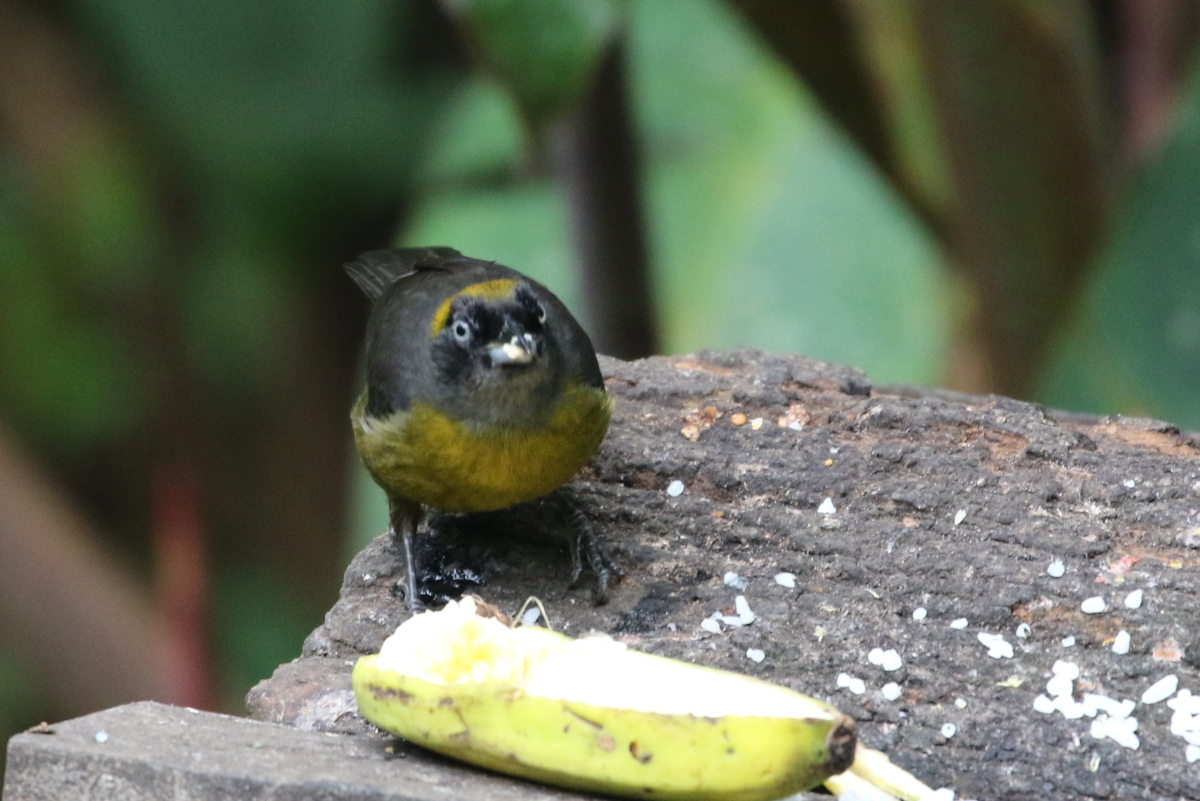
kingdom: Animalia
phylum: Chordata
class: Aves
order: Passeriformes
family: Mitrospingidae
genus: Mitrospingus
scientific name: Mitrospingus cassinii
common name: Dusky-faced tanager
